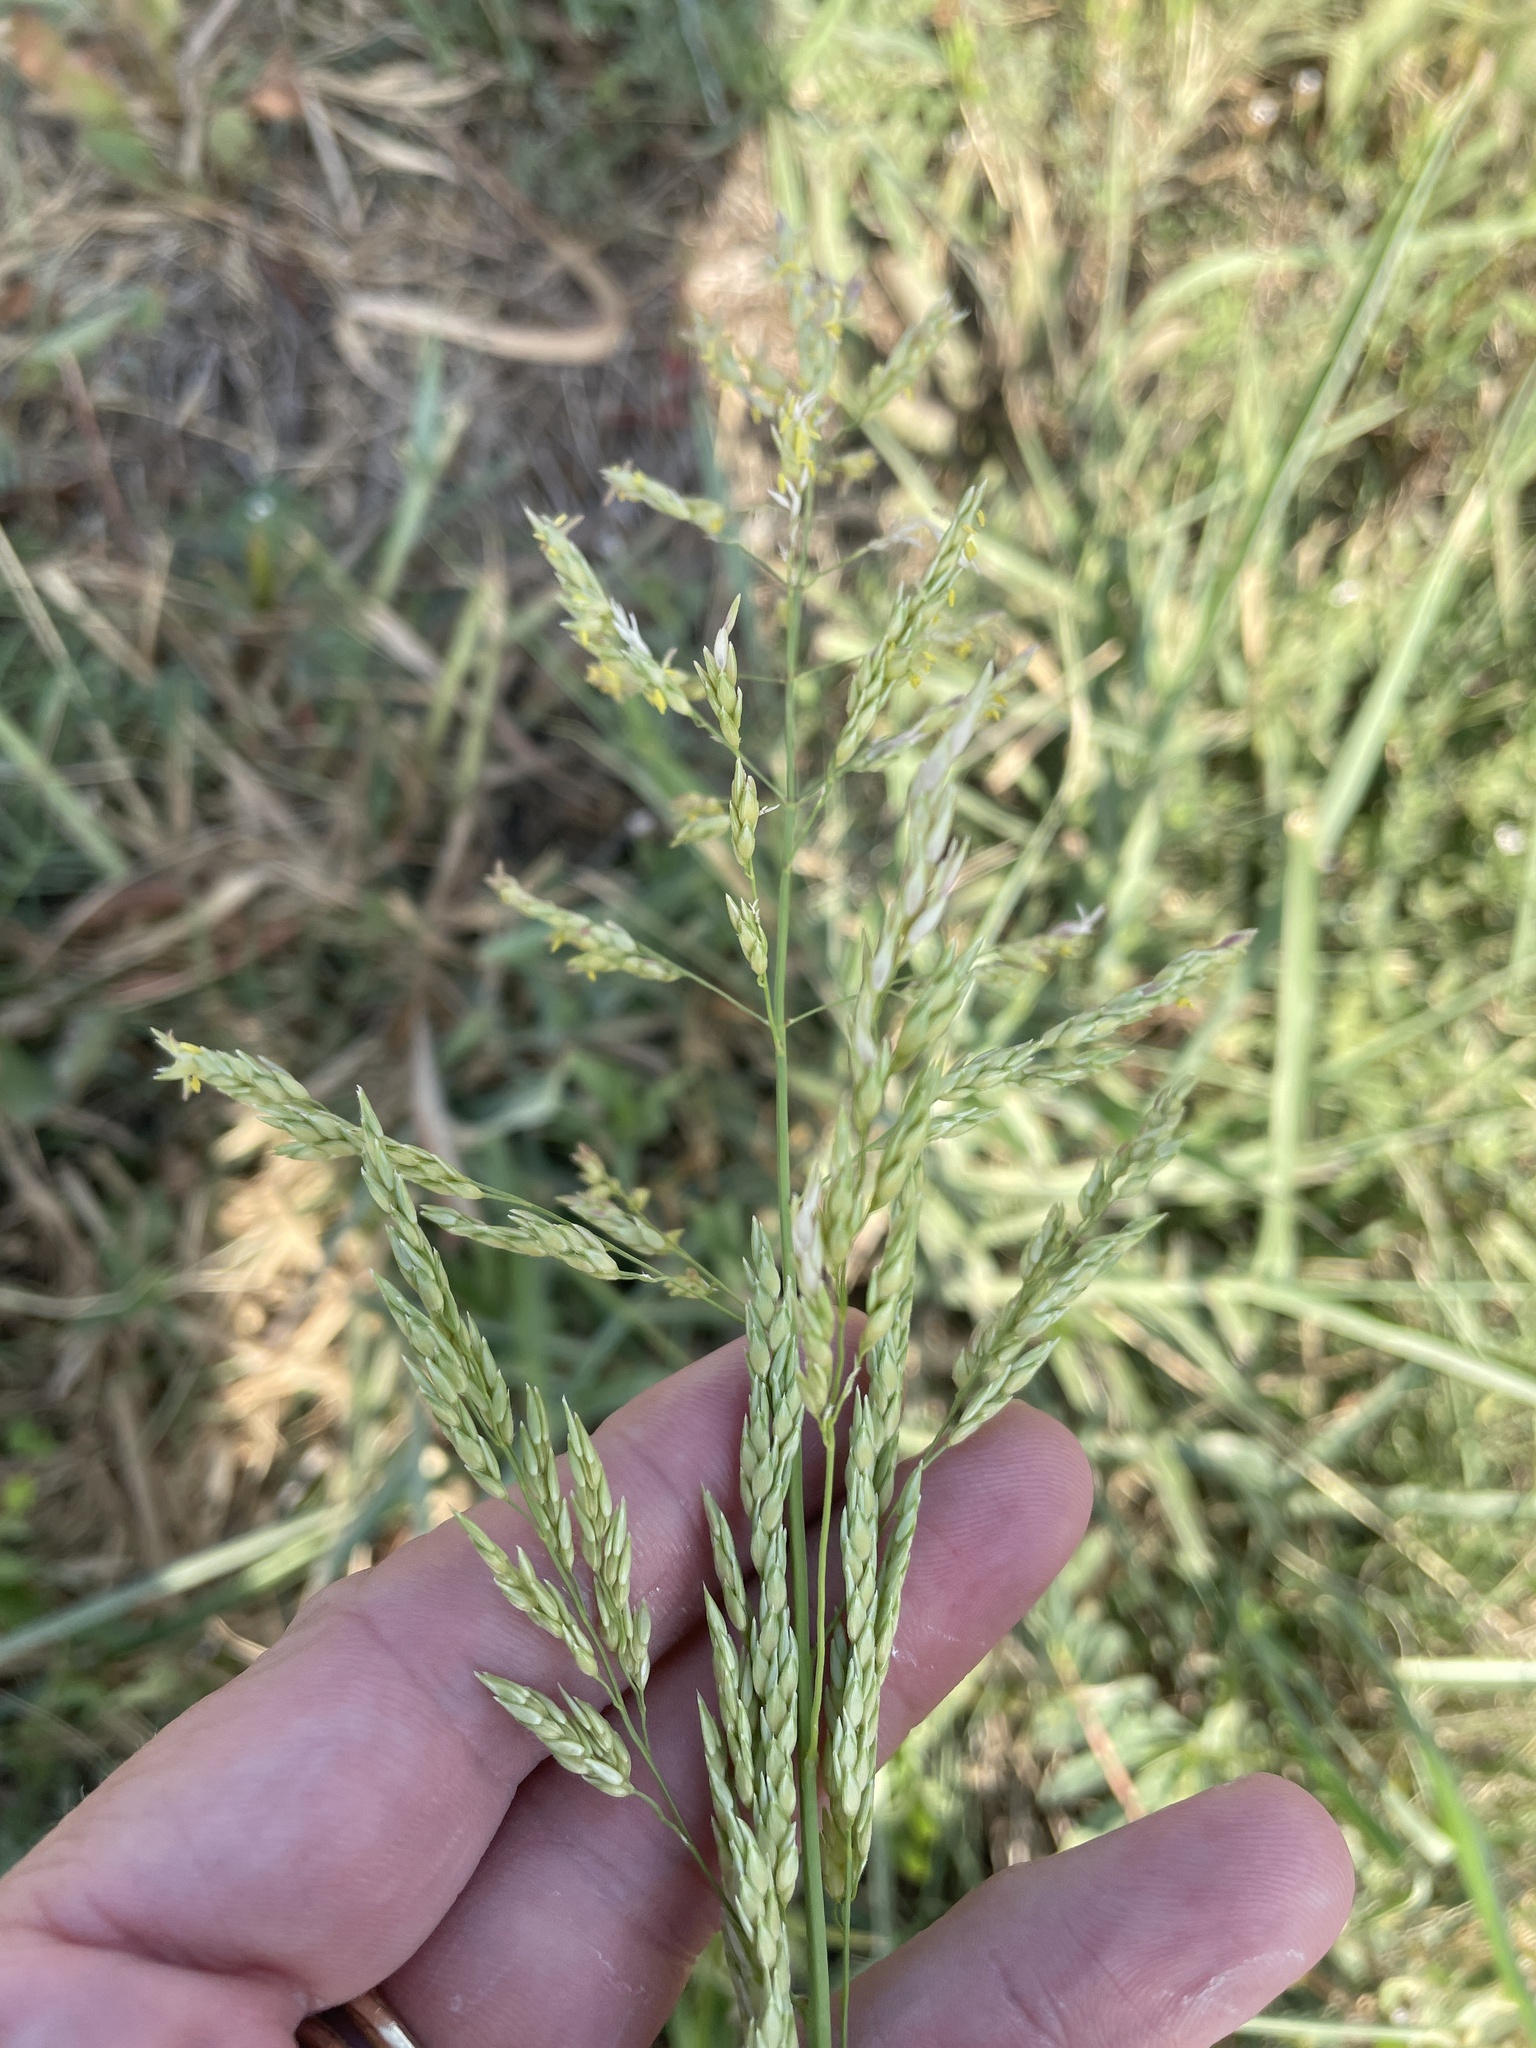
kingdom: Plantae
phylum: Tracheophyta
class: Liliopsida
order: Poales
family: Poaceae
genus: Sorghum
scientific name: Sorghum halepense
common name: Johnson-grass
